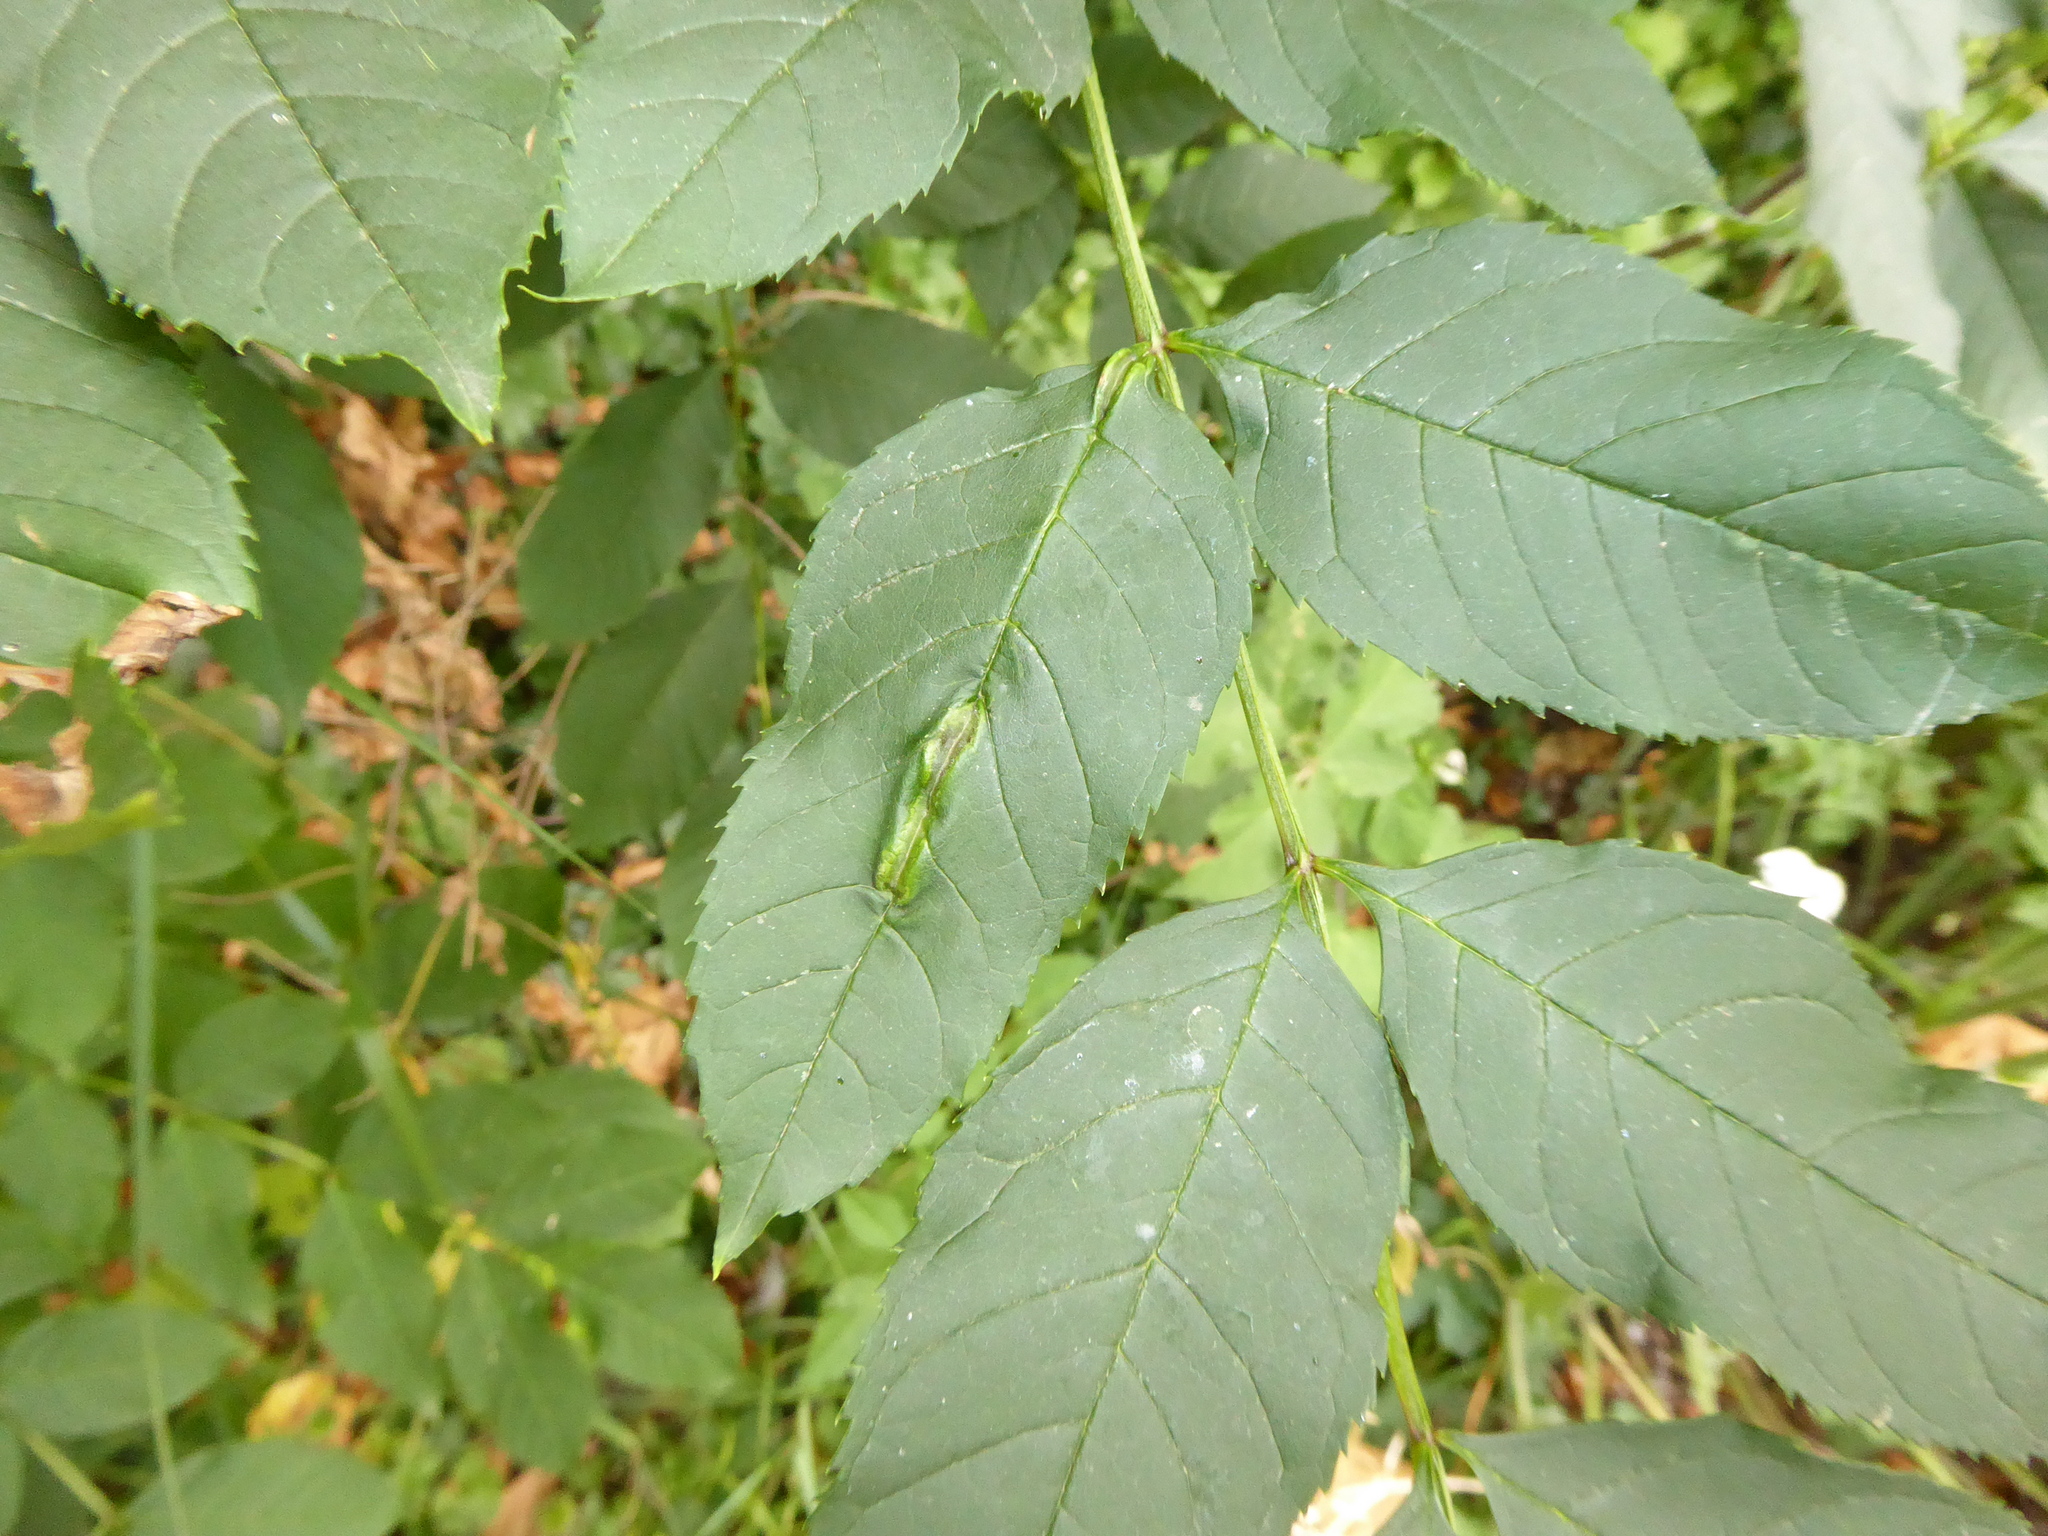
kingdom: Animalia
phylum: Arthropoda
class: Insecta
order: Diptera
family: Cecidomyiidae
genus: Dasineura
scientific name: Dasineura fraxini
